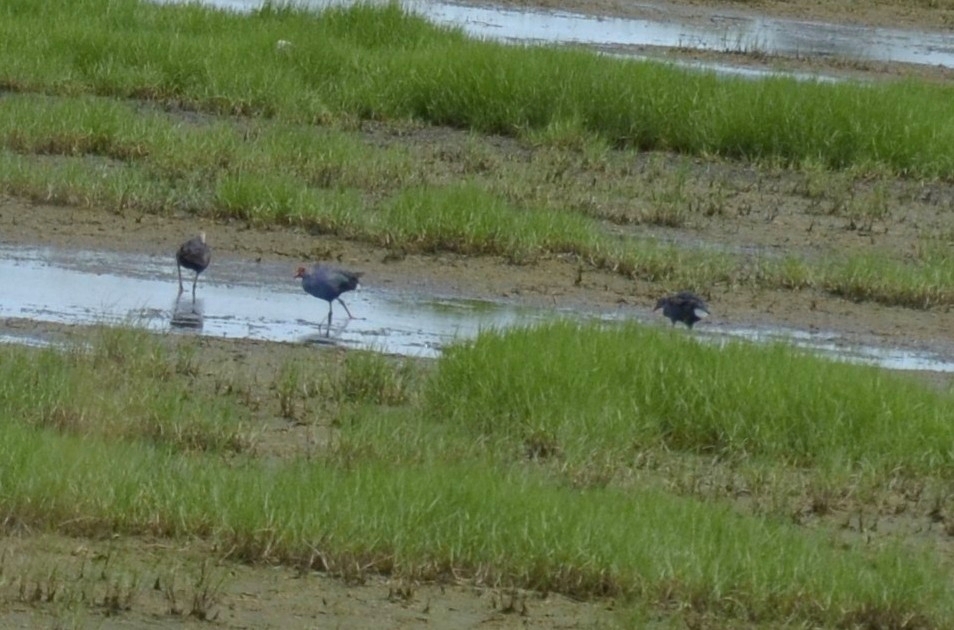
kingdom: Animalia
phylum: Chordata
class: Aves
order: Gruiformes
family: Rallidae
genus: Porphyrio
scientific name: Porphyrio porphyrio
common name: Purple swamphen
